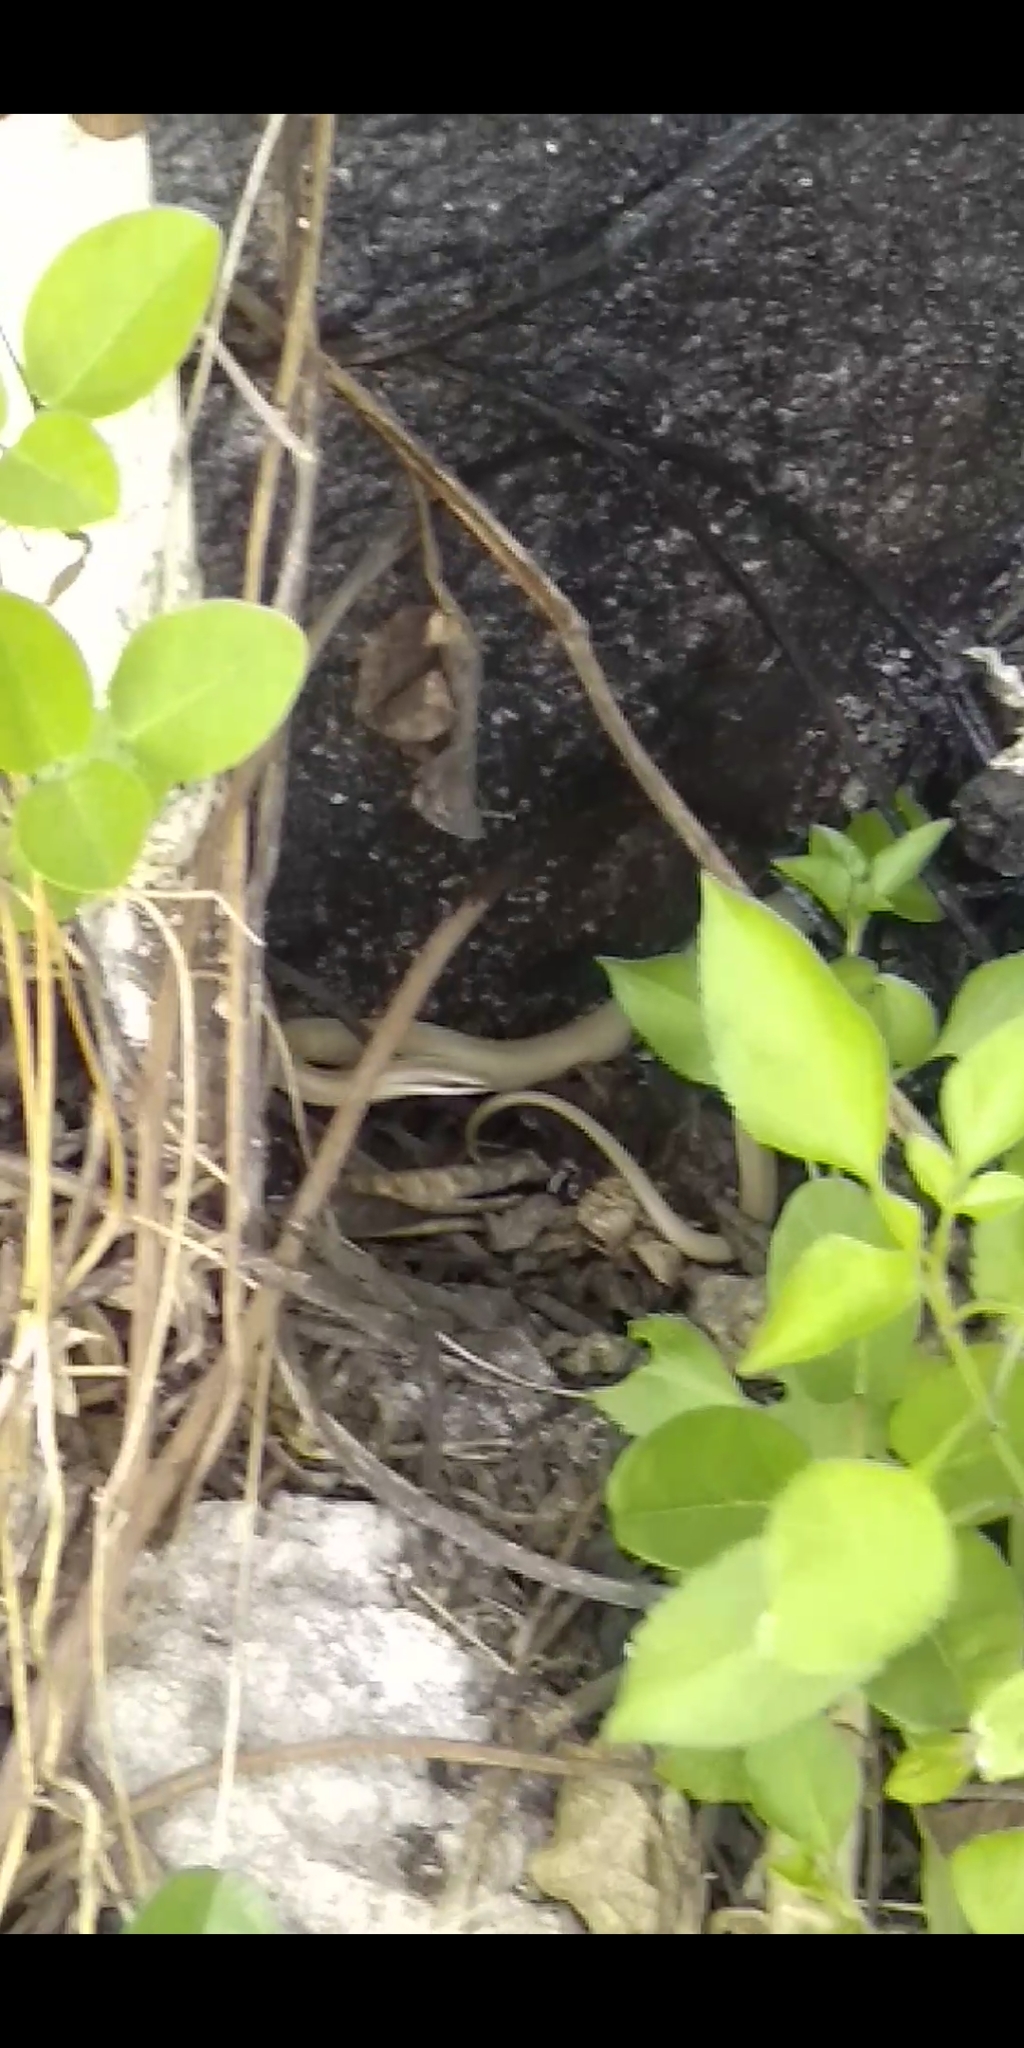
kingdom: Animalia
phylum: Chordata
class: Squamata
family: Colubridae
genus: Conophis
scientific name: Conophis lineatus
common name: Road guarder
